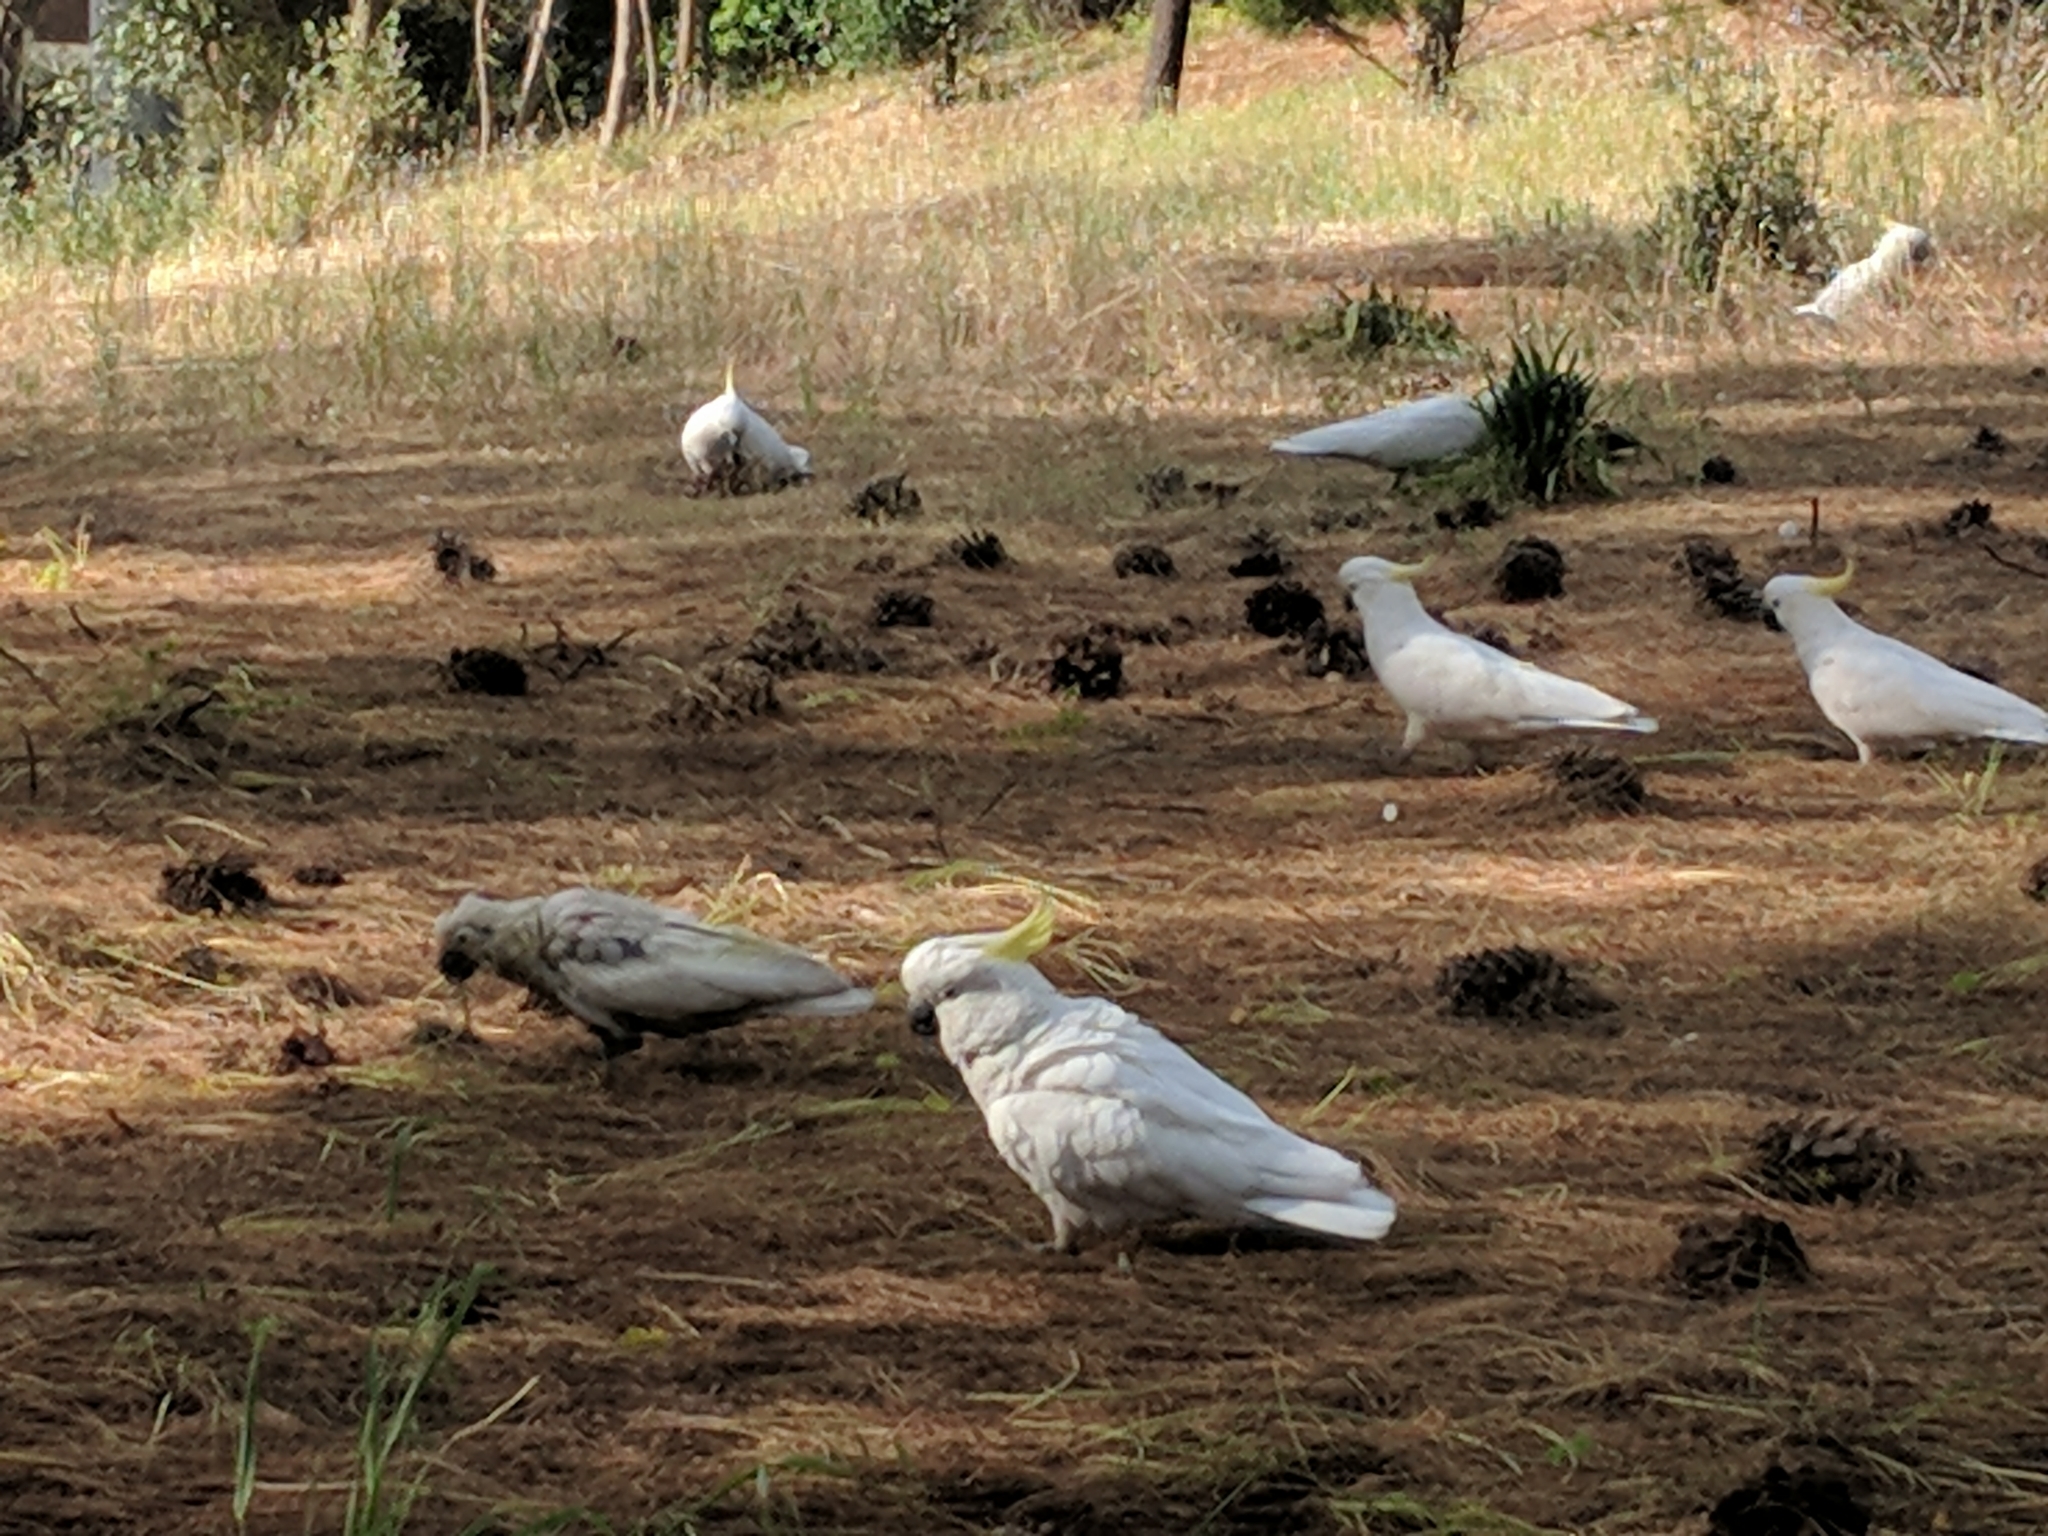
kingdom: Animalia
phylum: Chordata
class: Aves
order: Psittaciformes
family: Psittacidae
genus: Cacatua
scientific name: Cacatua galerita
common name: Sulphur-crested cockatoo
